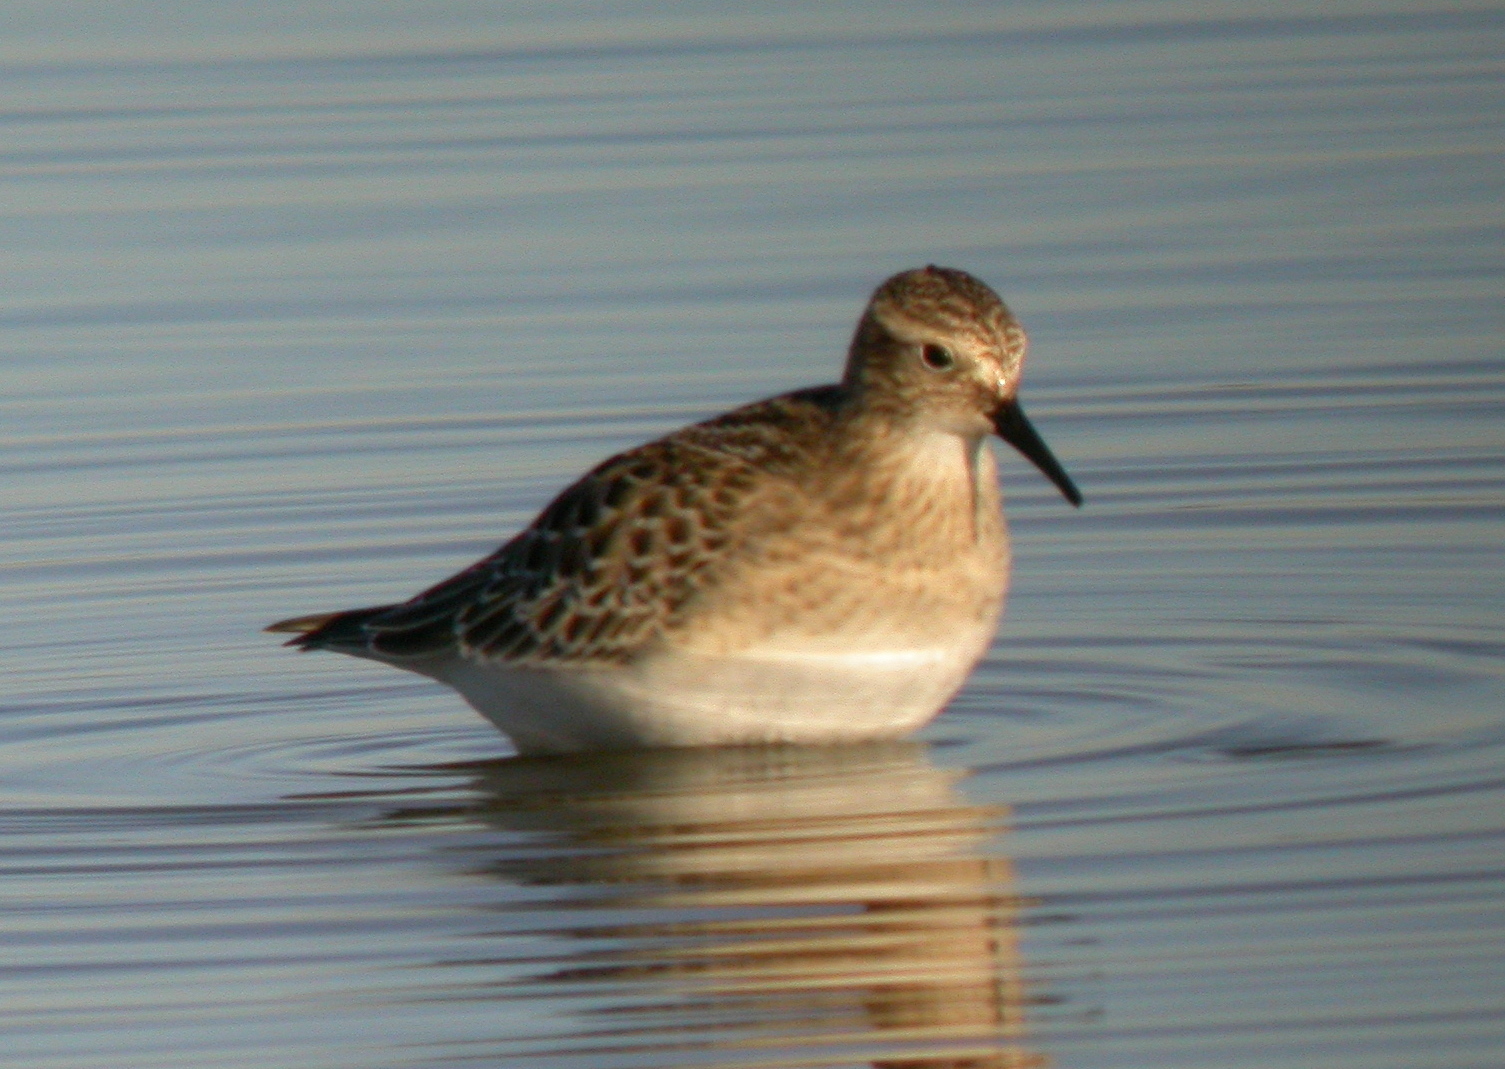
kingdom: Animalia
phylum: Chordata
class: Aves
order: Charadriiformes
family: Scolopacidae
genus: Calidris
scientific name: Calidris bairdii
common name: Baird's sandpiper
